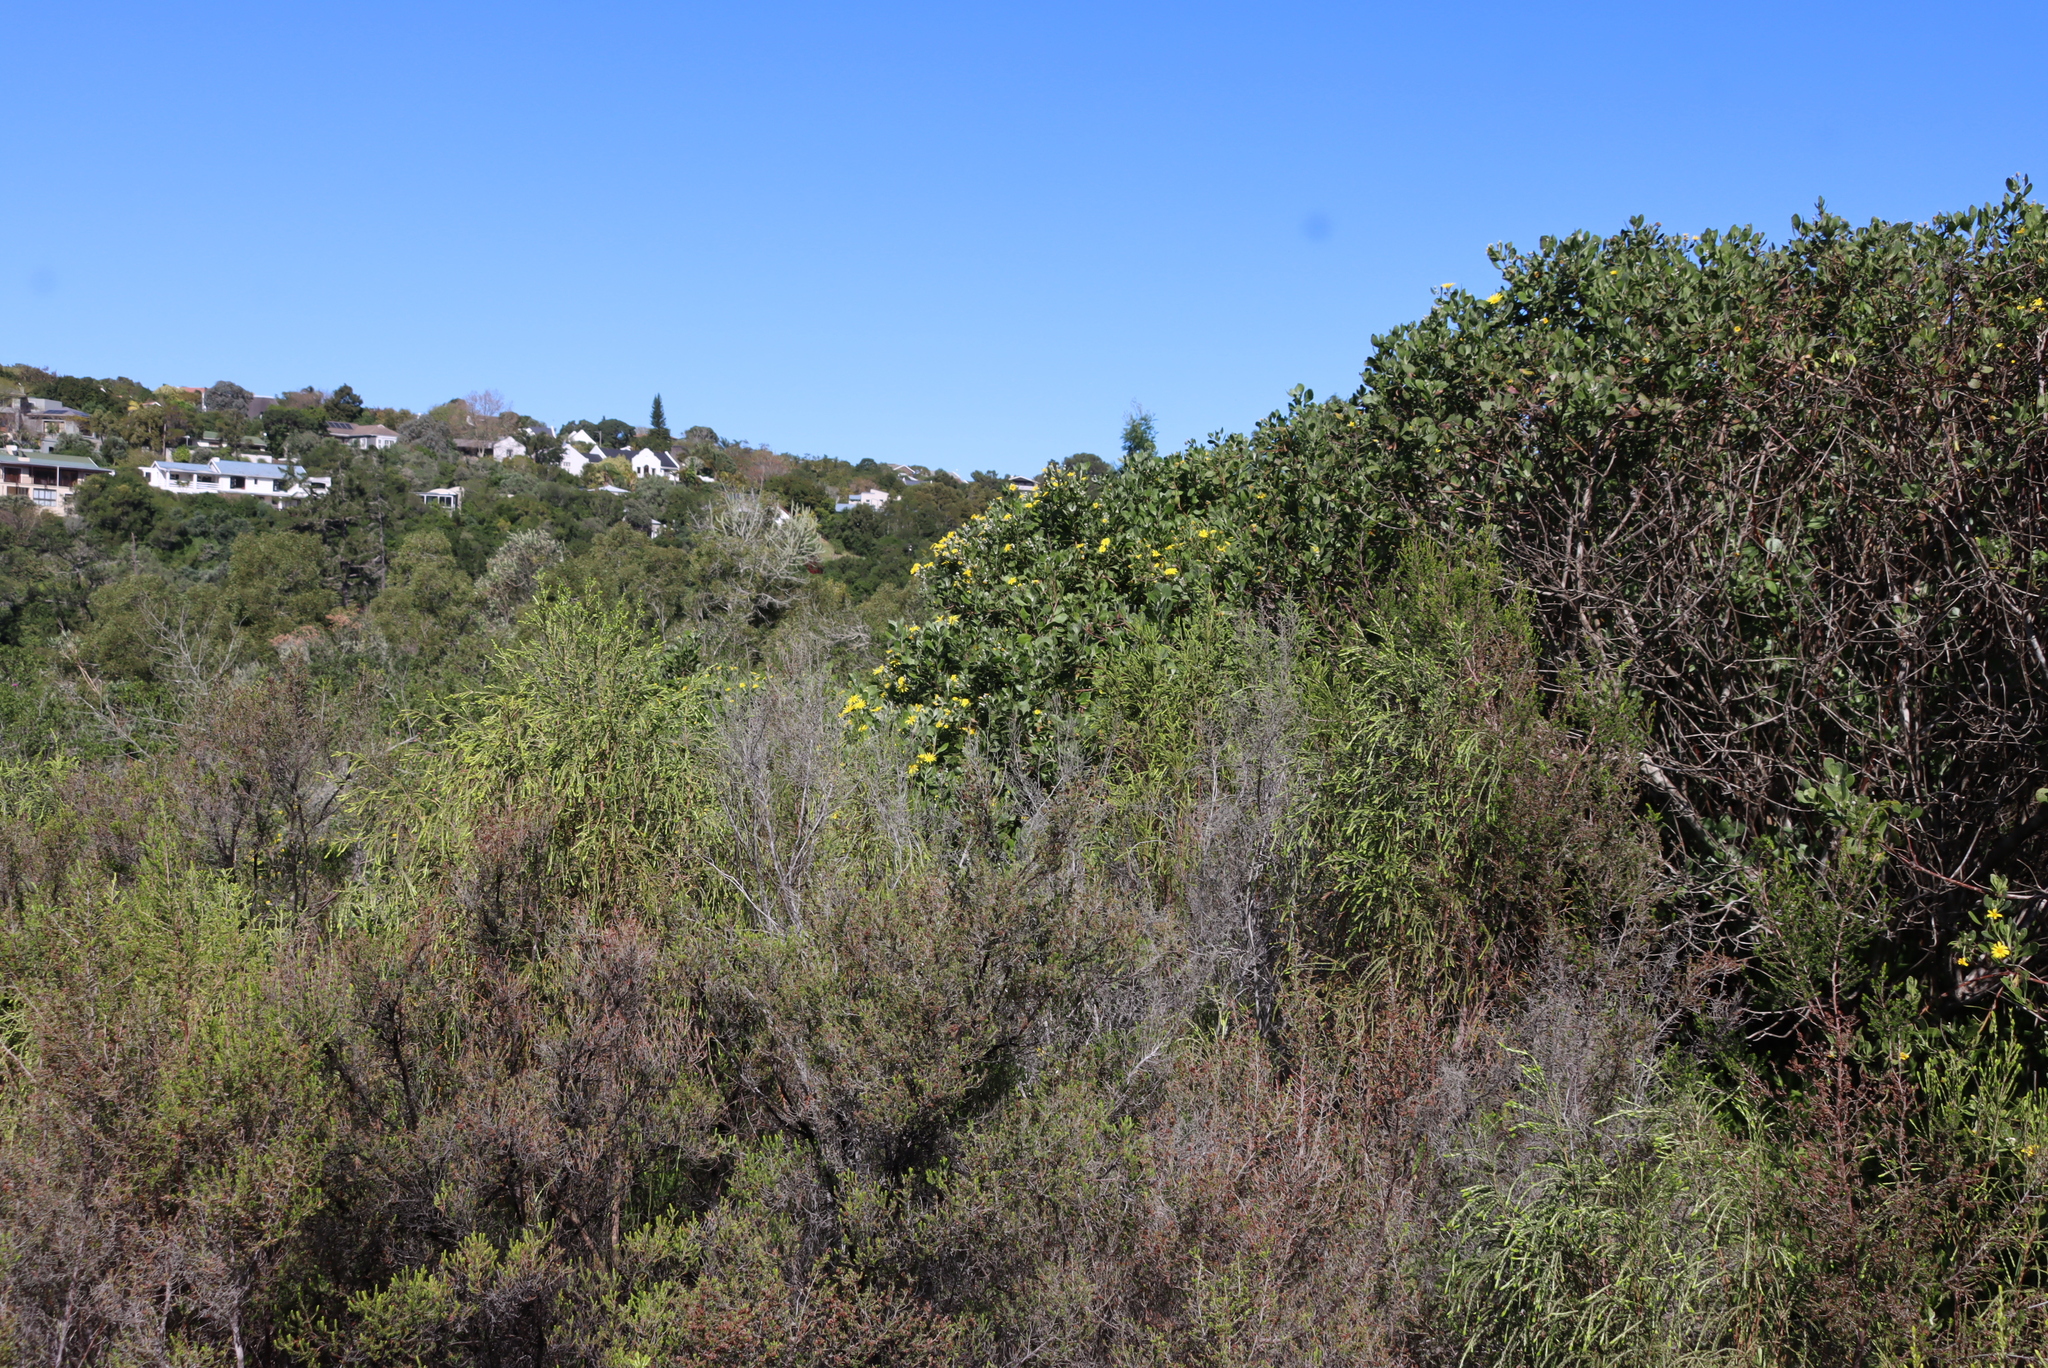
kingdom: Plantae
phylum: Tracheophyta
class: Magnoliopsida
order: Asterales
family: Asteraceae
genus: Osteospermum
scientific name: Osteospermum moniliferum
